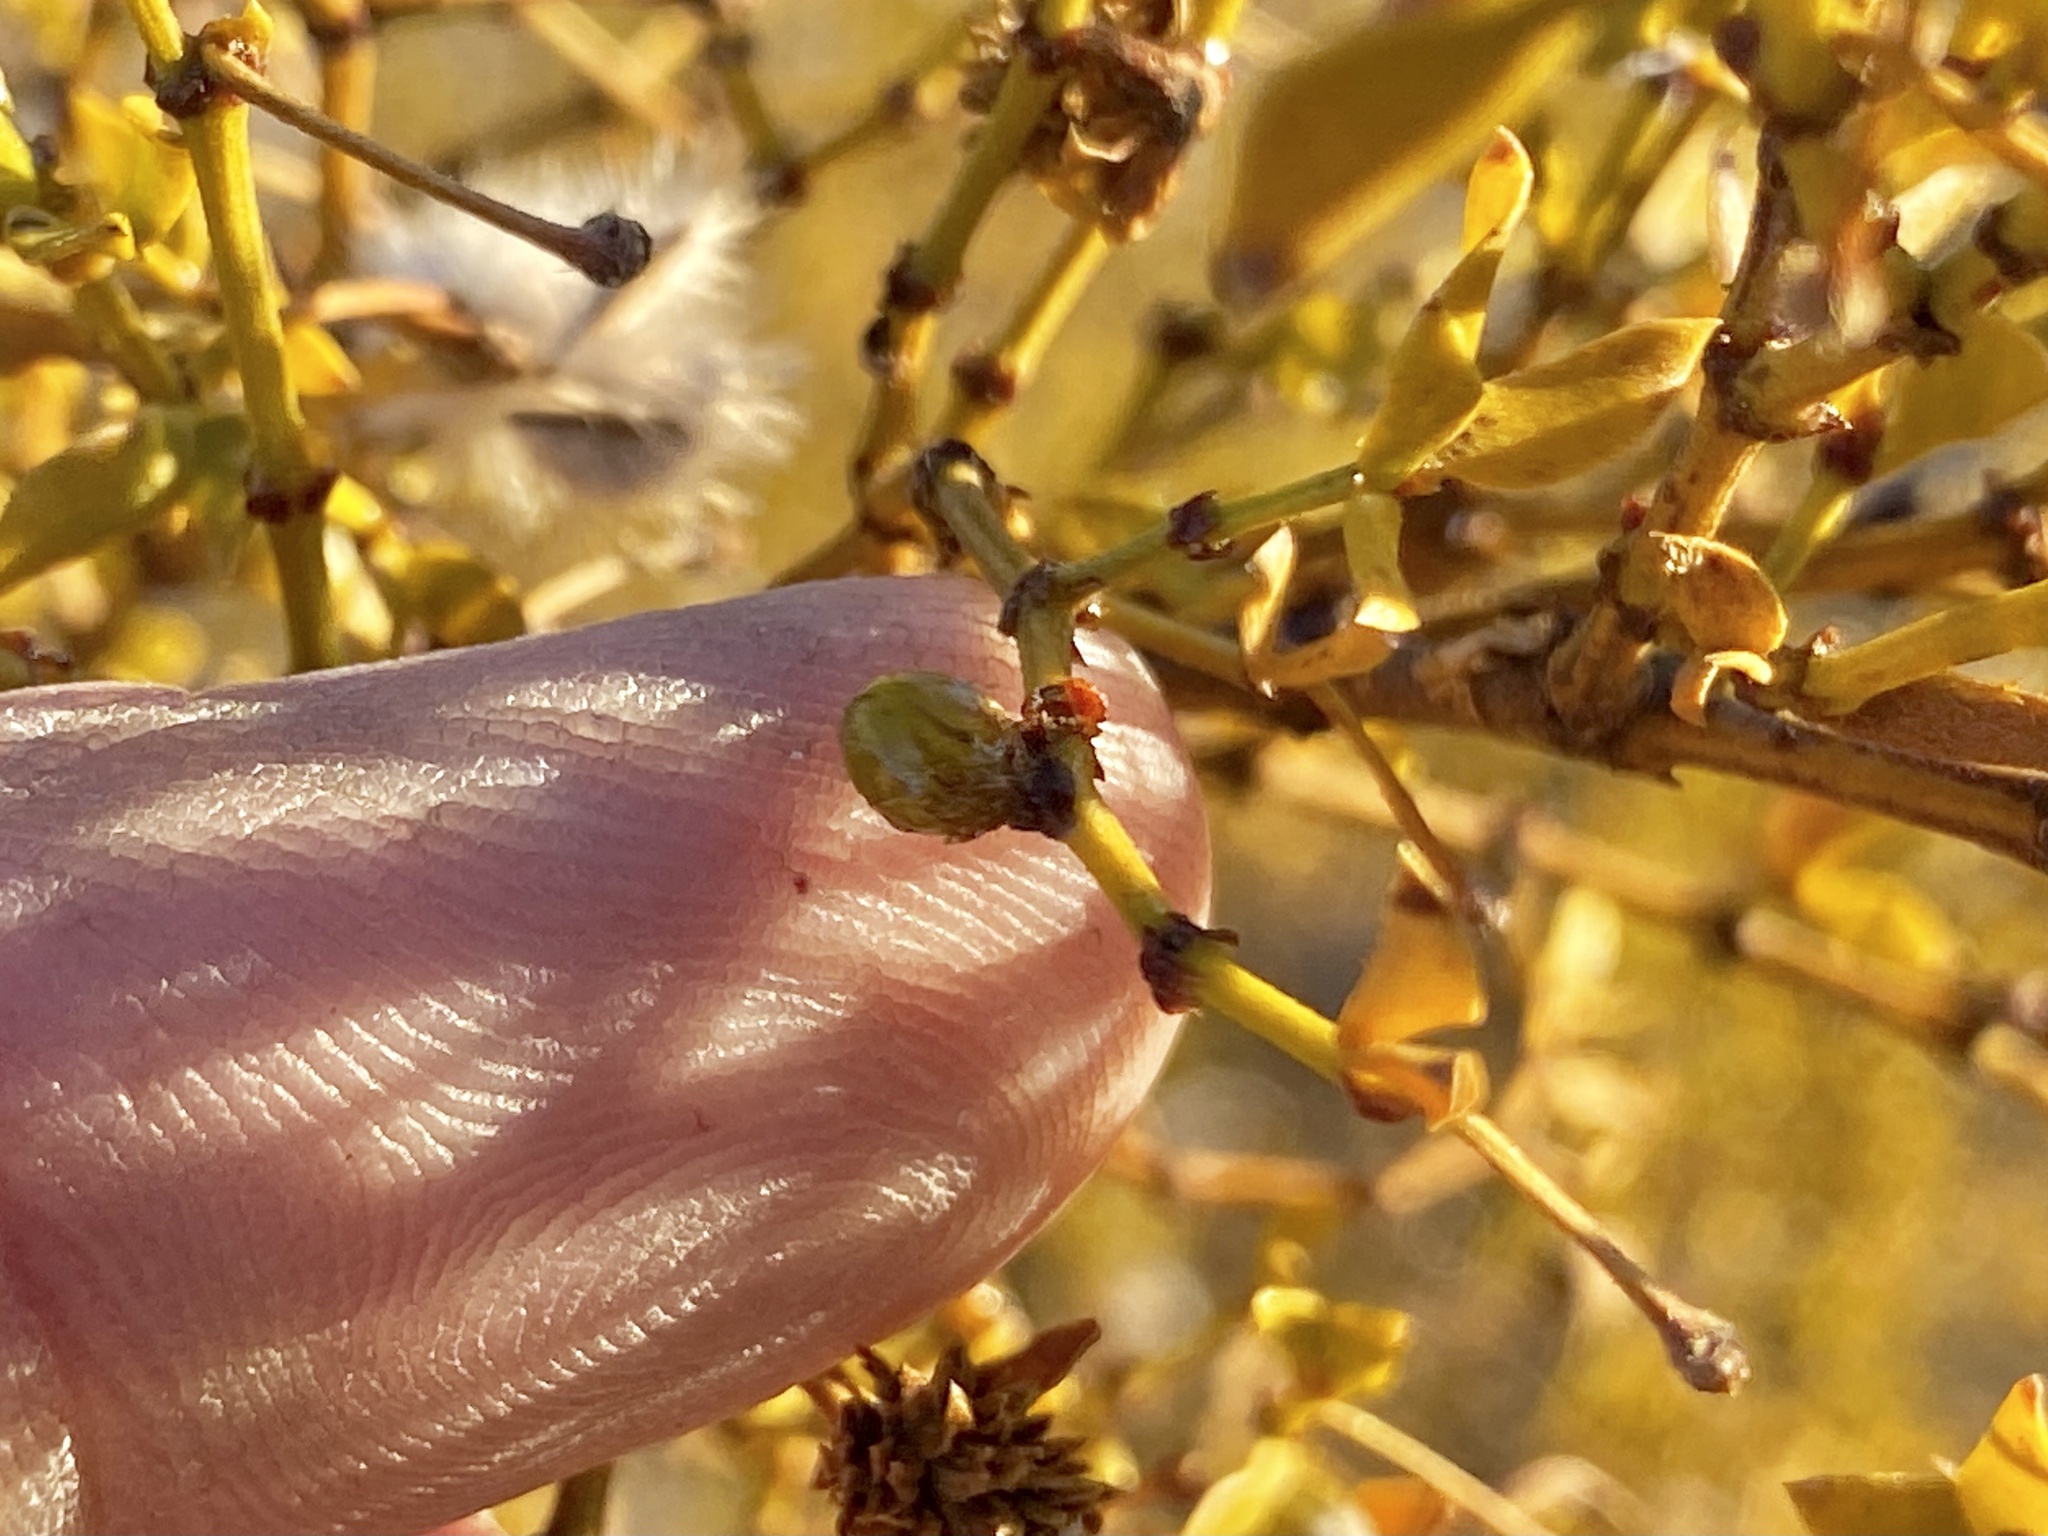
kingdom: Animalia
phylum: Arthropoda
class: Insecta
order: Diptera
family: Cecidomyiidae
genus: Asphondylia
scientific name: Asphondylia resinosa
